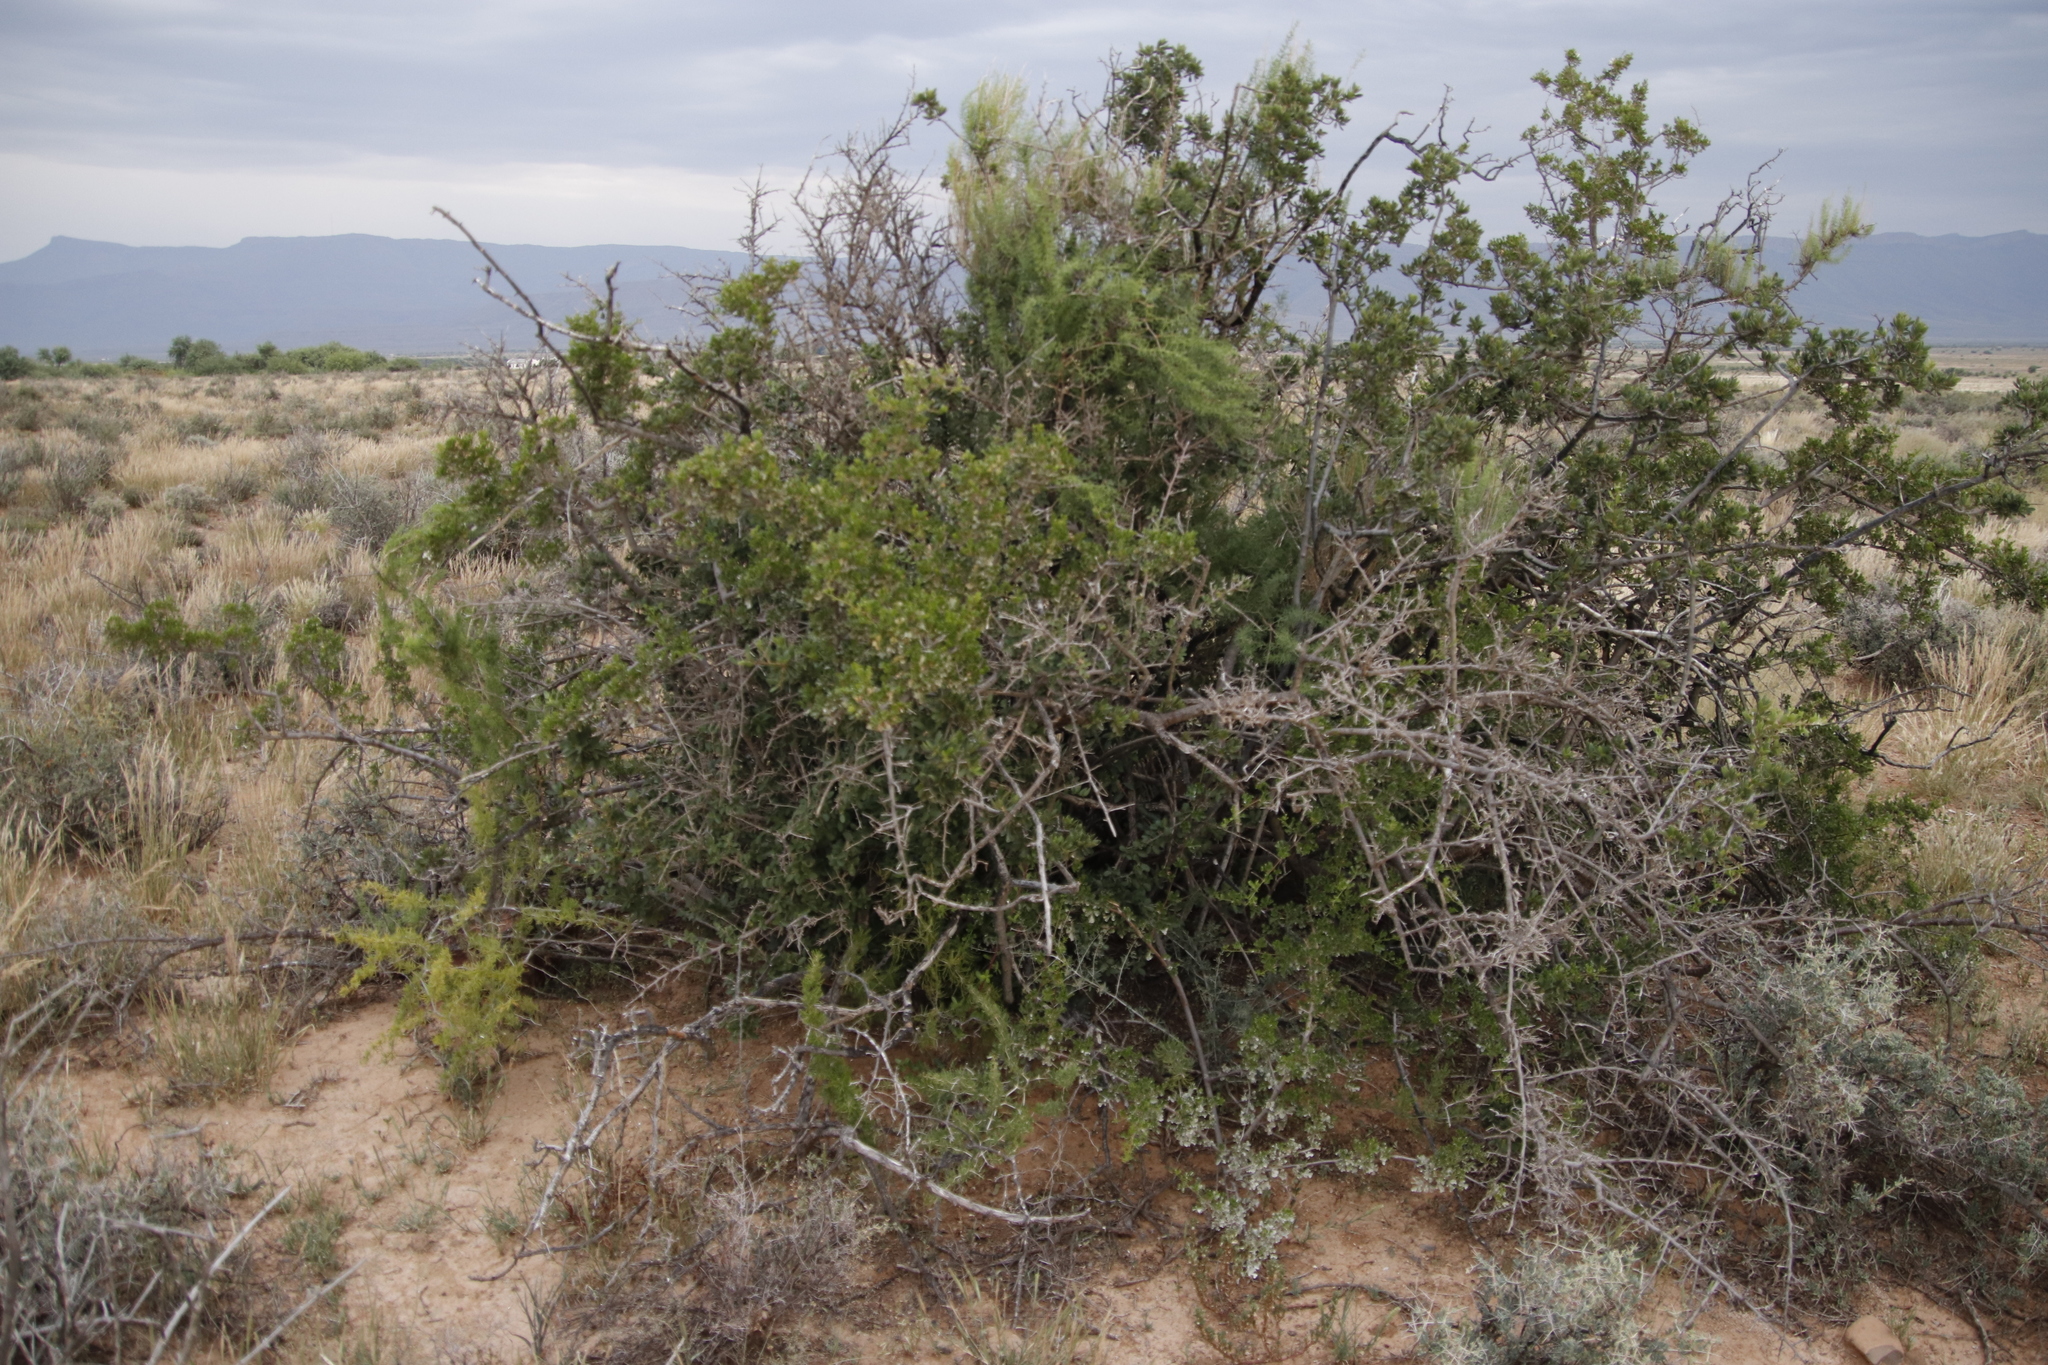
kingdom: Plantae
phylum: Tracheophyta
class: Magnoliopsida
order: Sapindales
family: Anacardiaceae
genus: Searsia
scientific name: Searsia burchellii
